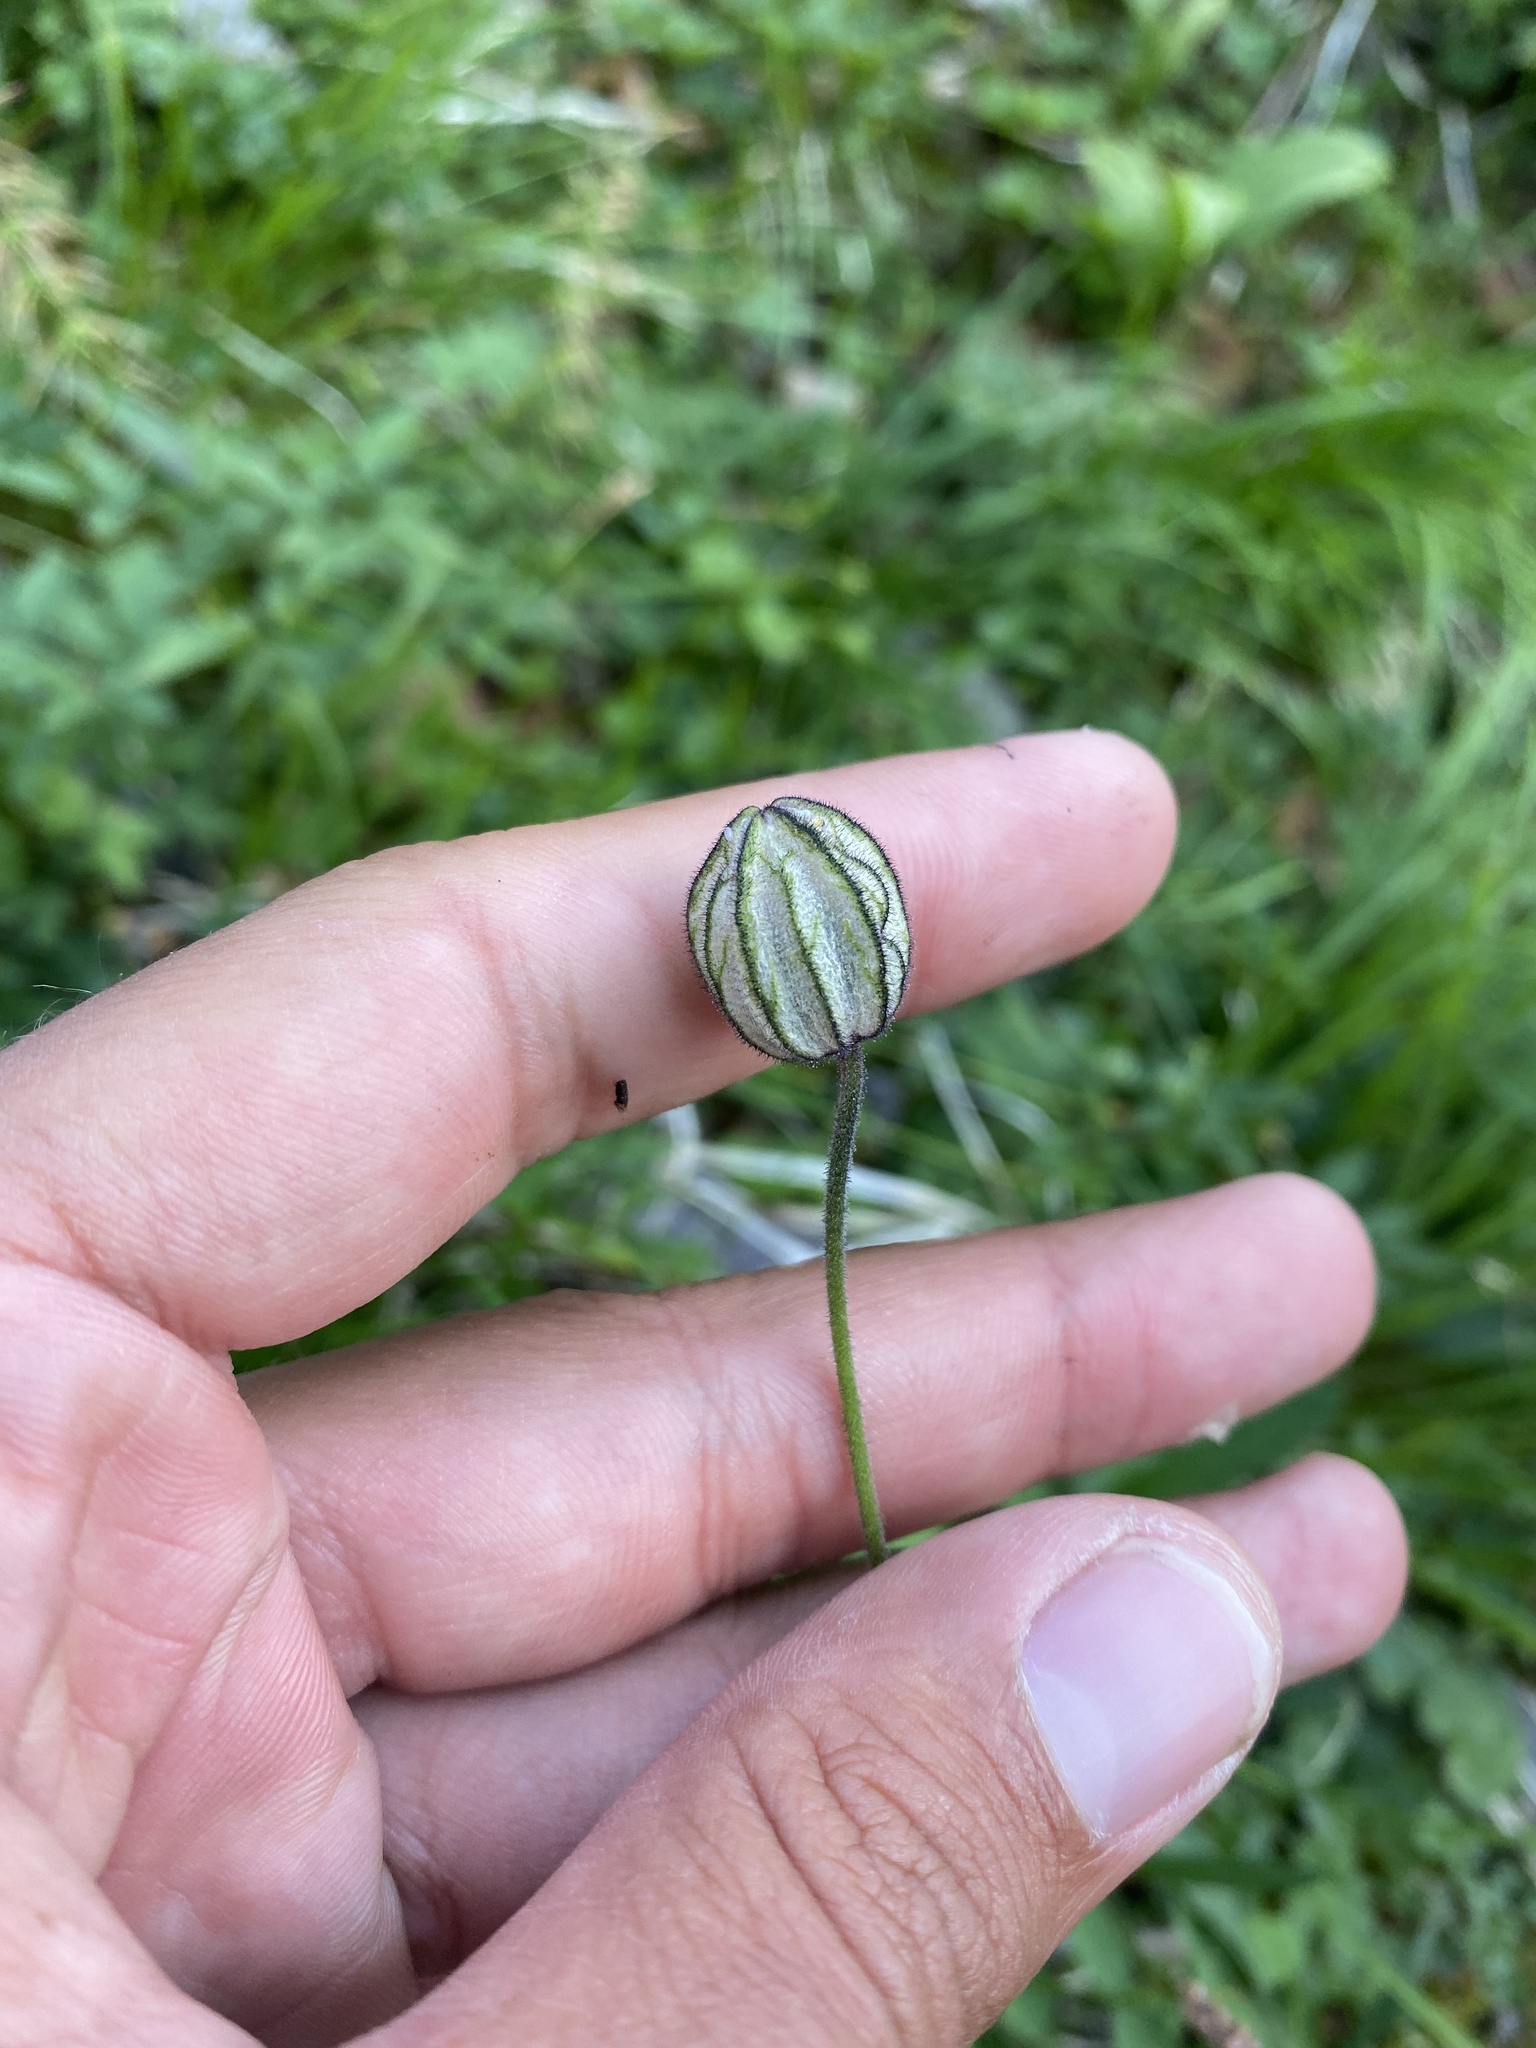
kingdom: Plantae
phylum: Tracheophyta
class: Magnoliopsida
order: Caryophyllales
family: Caryophyllaceae
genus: Silene
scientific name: Silene wahlbergella
